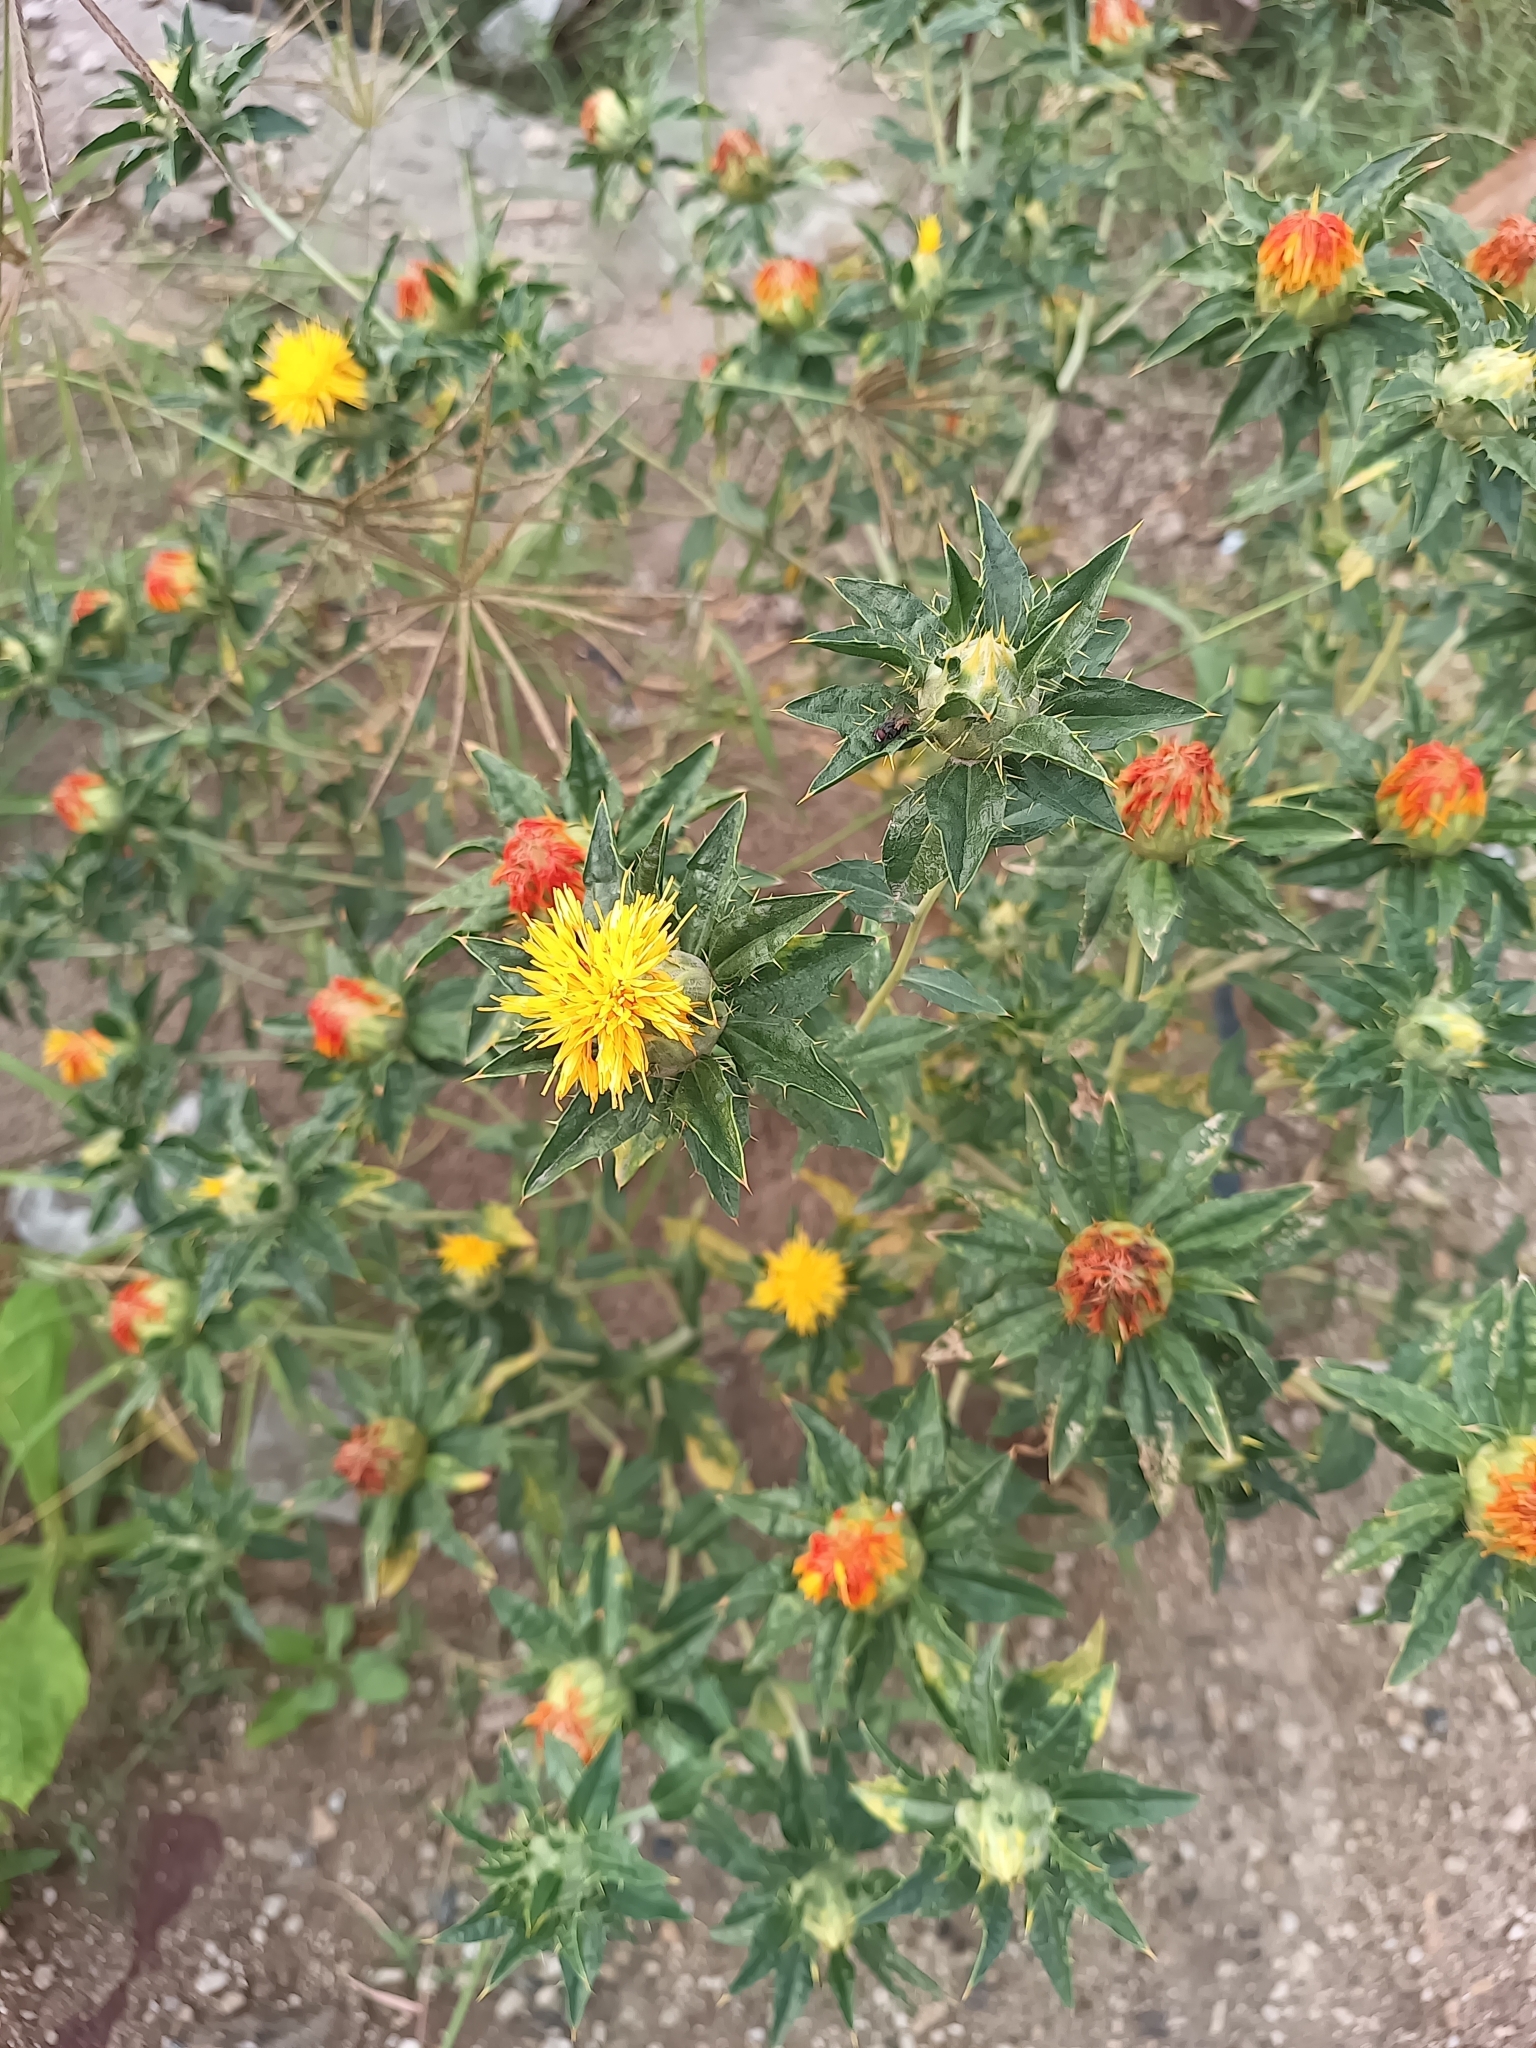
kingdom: Plantae
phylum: Tracheophyta
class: Magnoliopsida
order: Asterales
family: Asteraceae
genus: Carthamus
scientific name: Carthamus tinctorius
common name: Safflower
